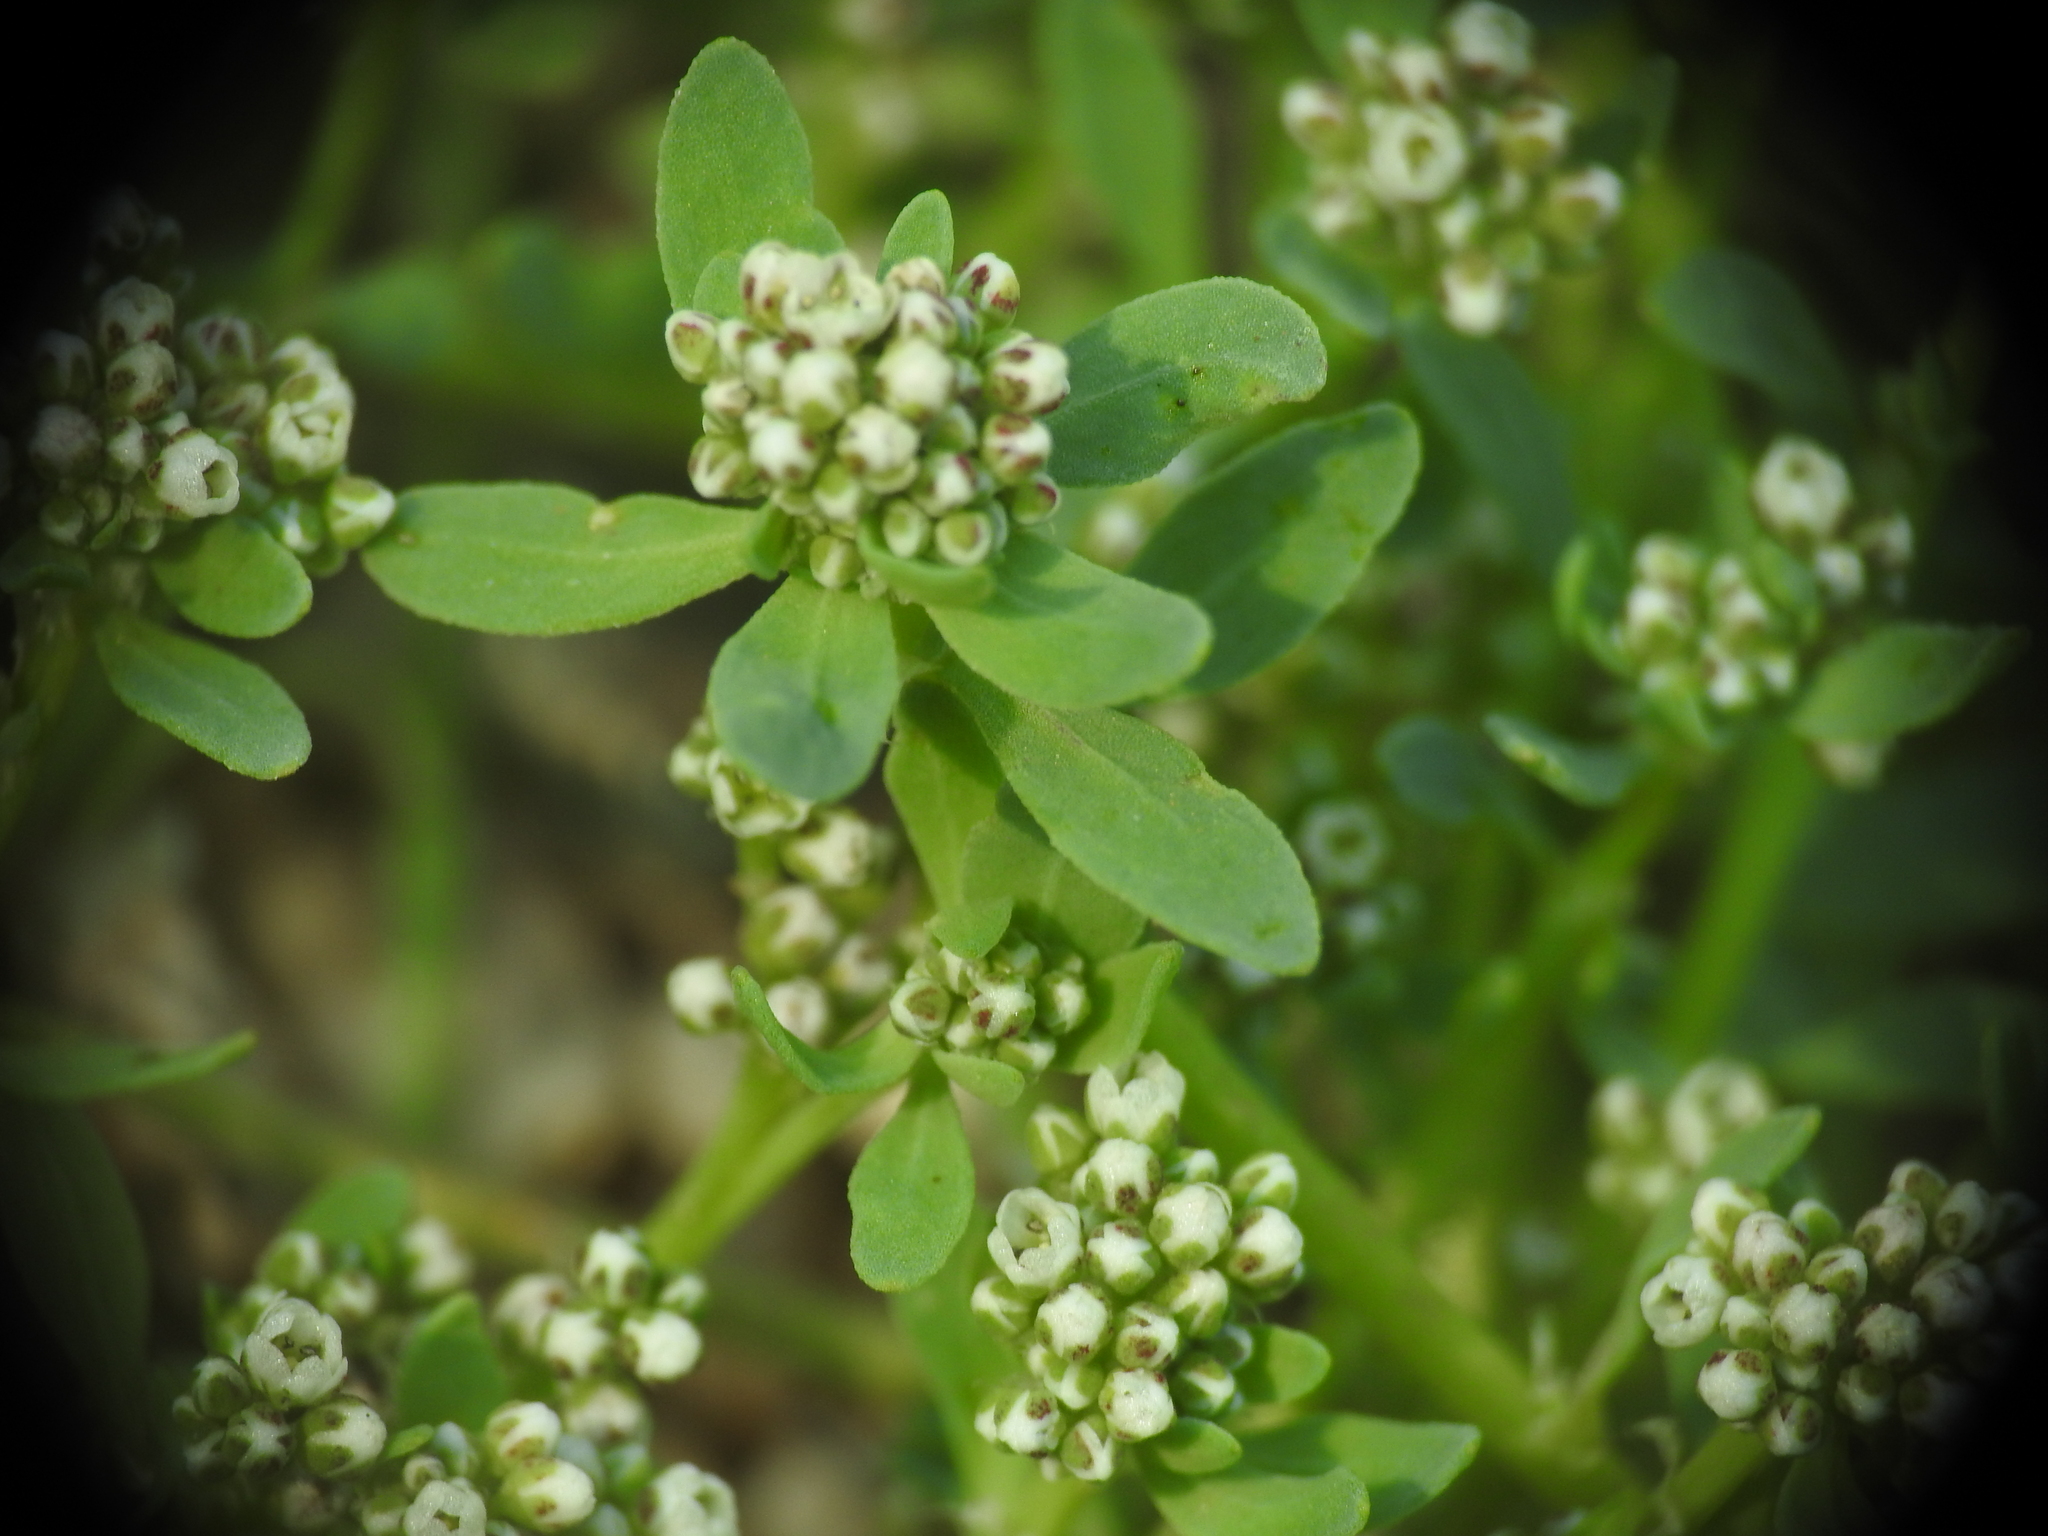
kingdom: Plantae
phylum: Tracheophyta
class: Magnoliopsida
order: Caryophyllales
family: Caryophyllaceae
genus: Corrigiola
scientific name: Corrigiola litoralis
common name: Strapwort
